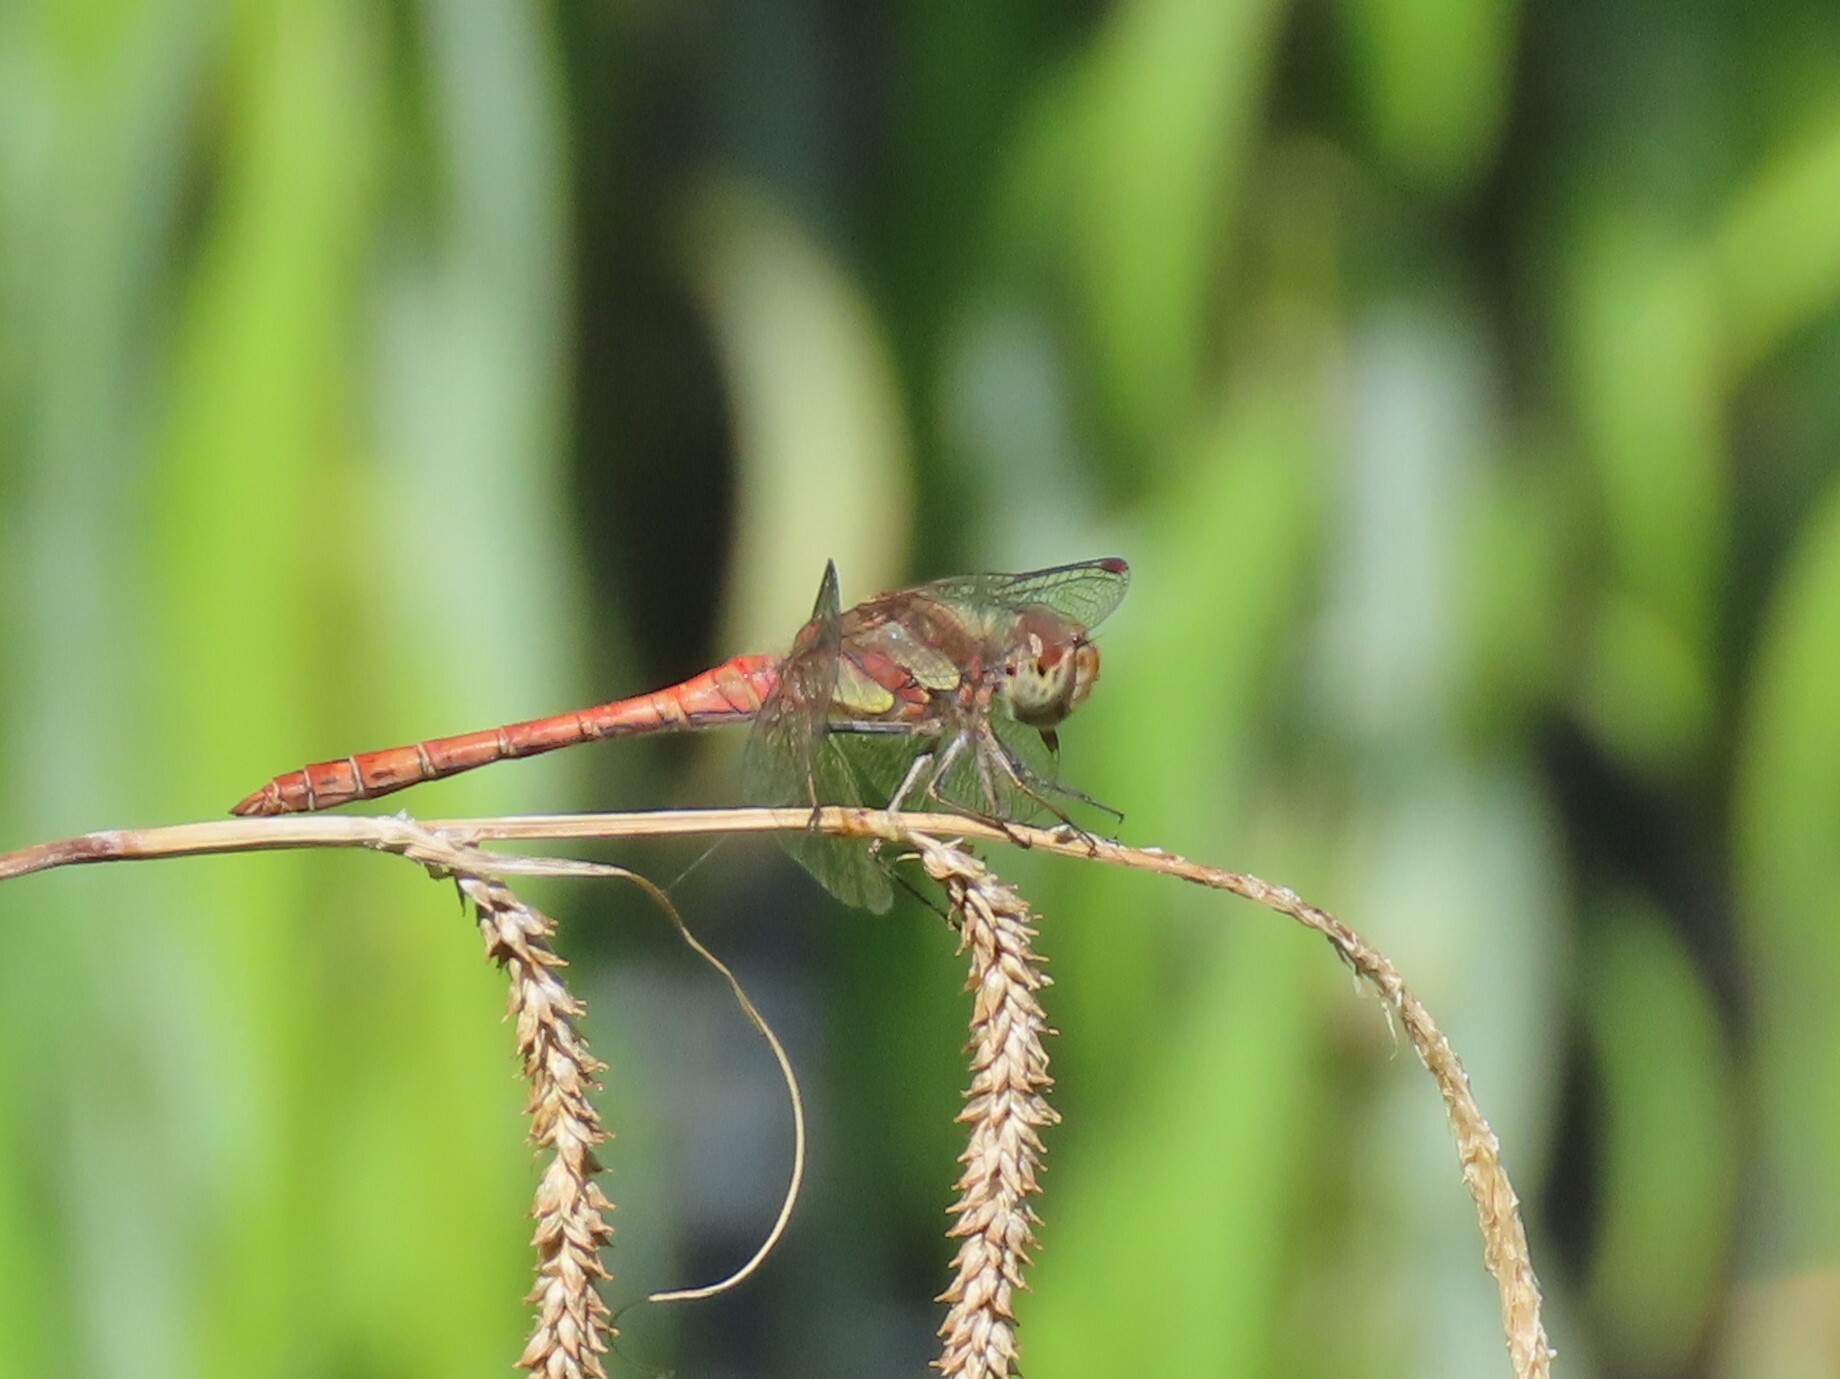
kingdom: Animalia
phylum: Arthropoda
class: Insecta
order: Odonata
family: Libellulidae
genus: Sympetrum
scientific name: Sympetrum striolatum
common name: Common darter
